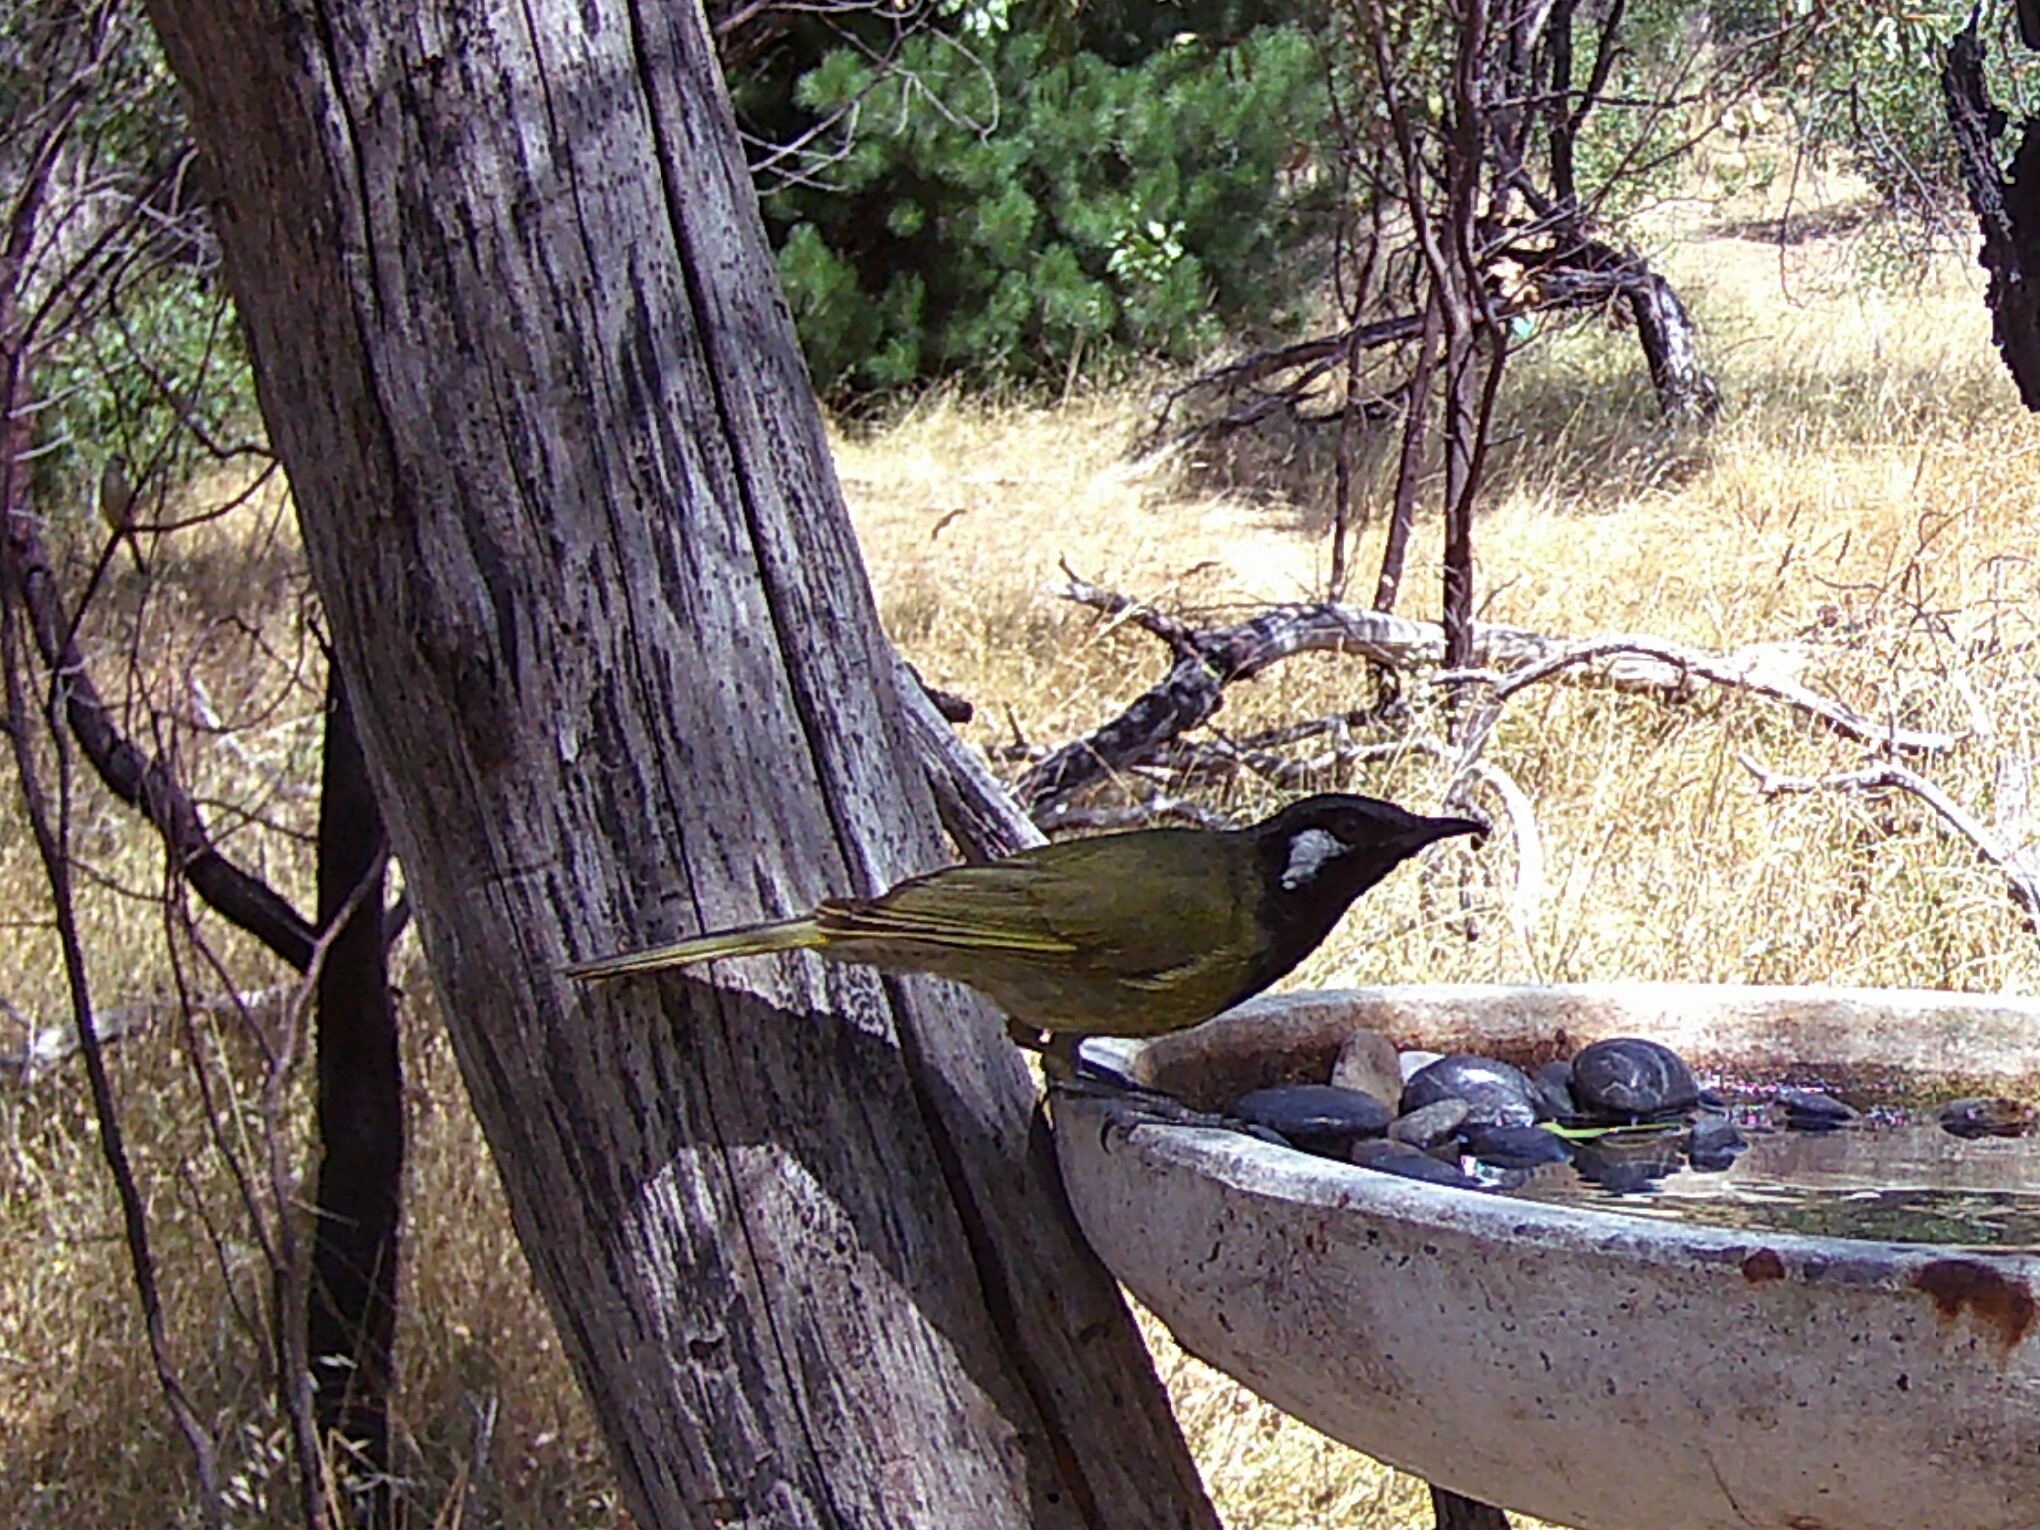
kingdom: Animalia
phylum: Chordata
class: Aves
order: Passeriformes
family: Meliphagidae
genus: Nesoptilotis
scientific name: Nesoptilotis leucotis
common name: White-eared honeyeater
